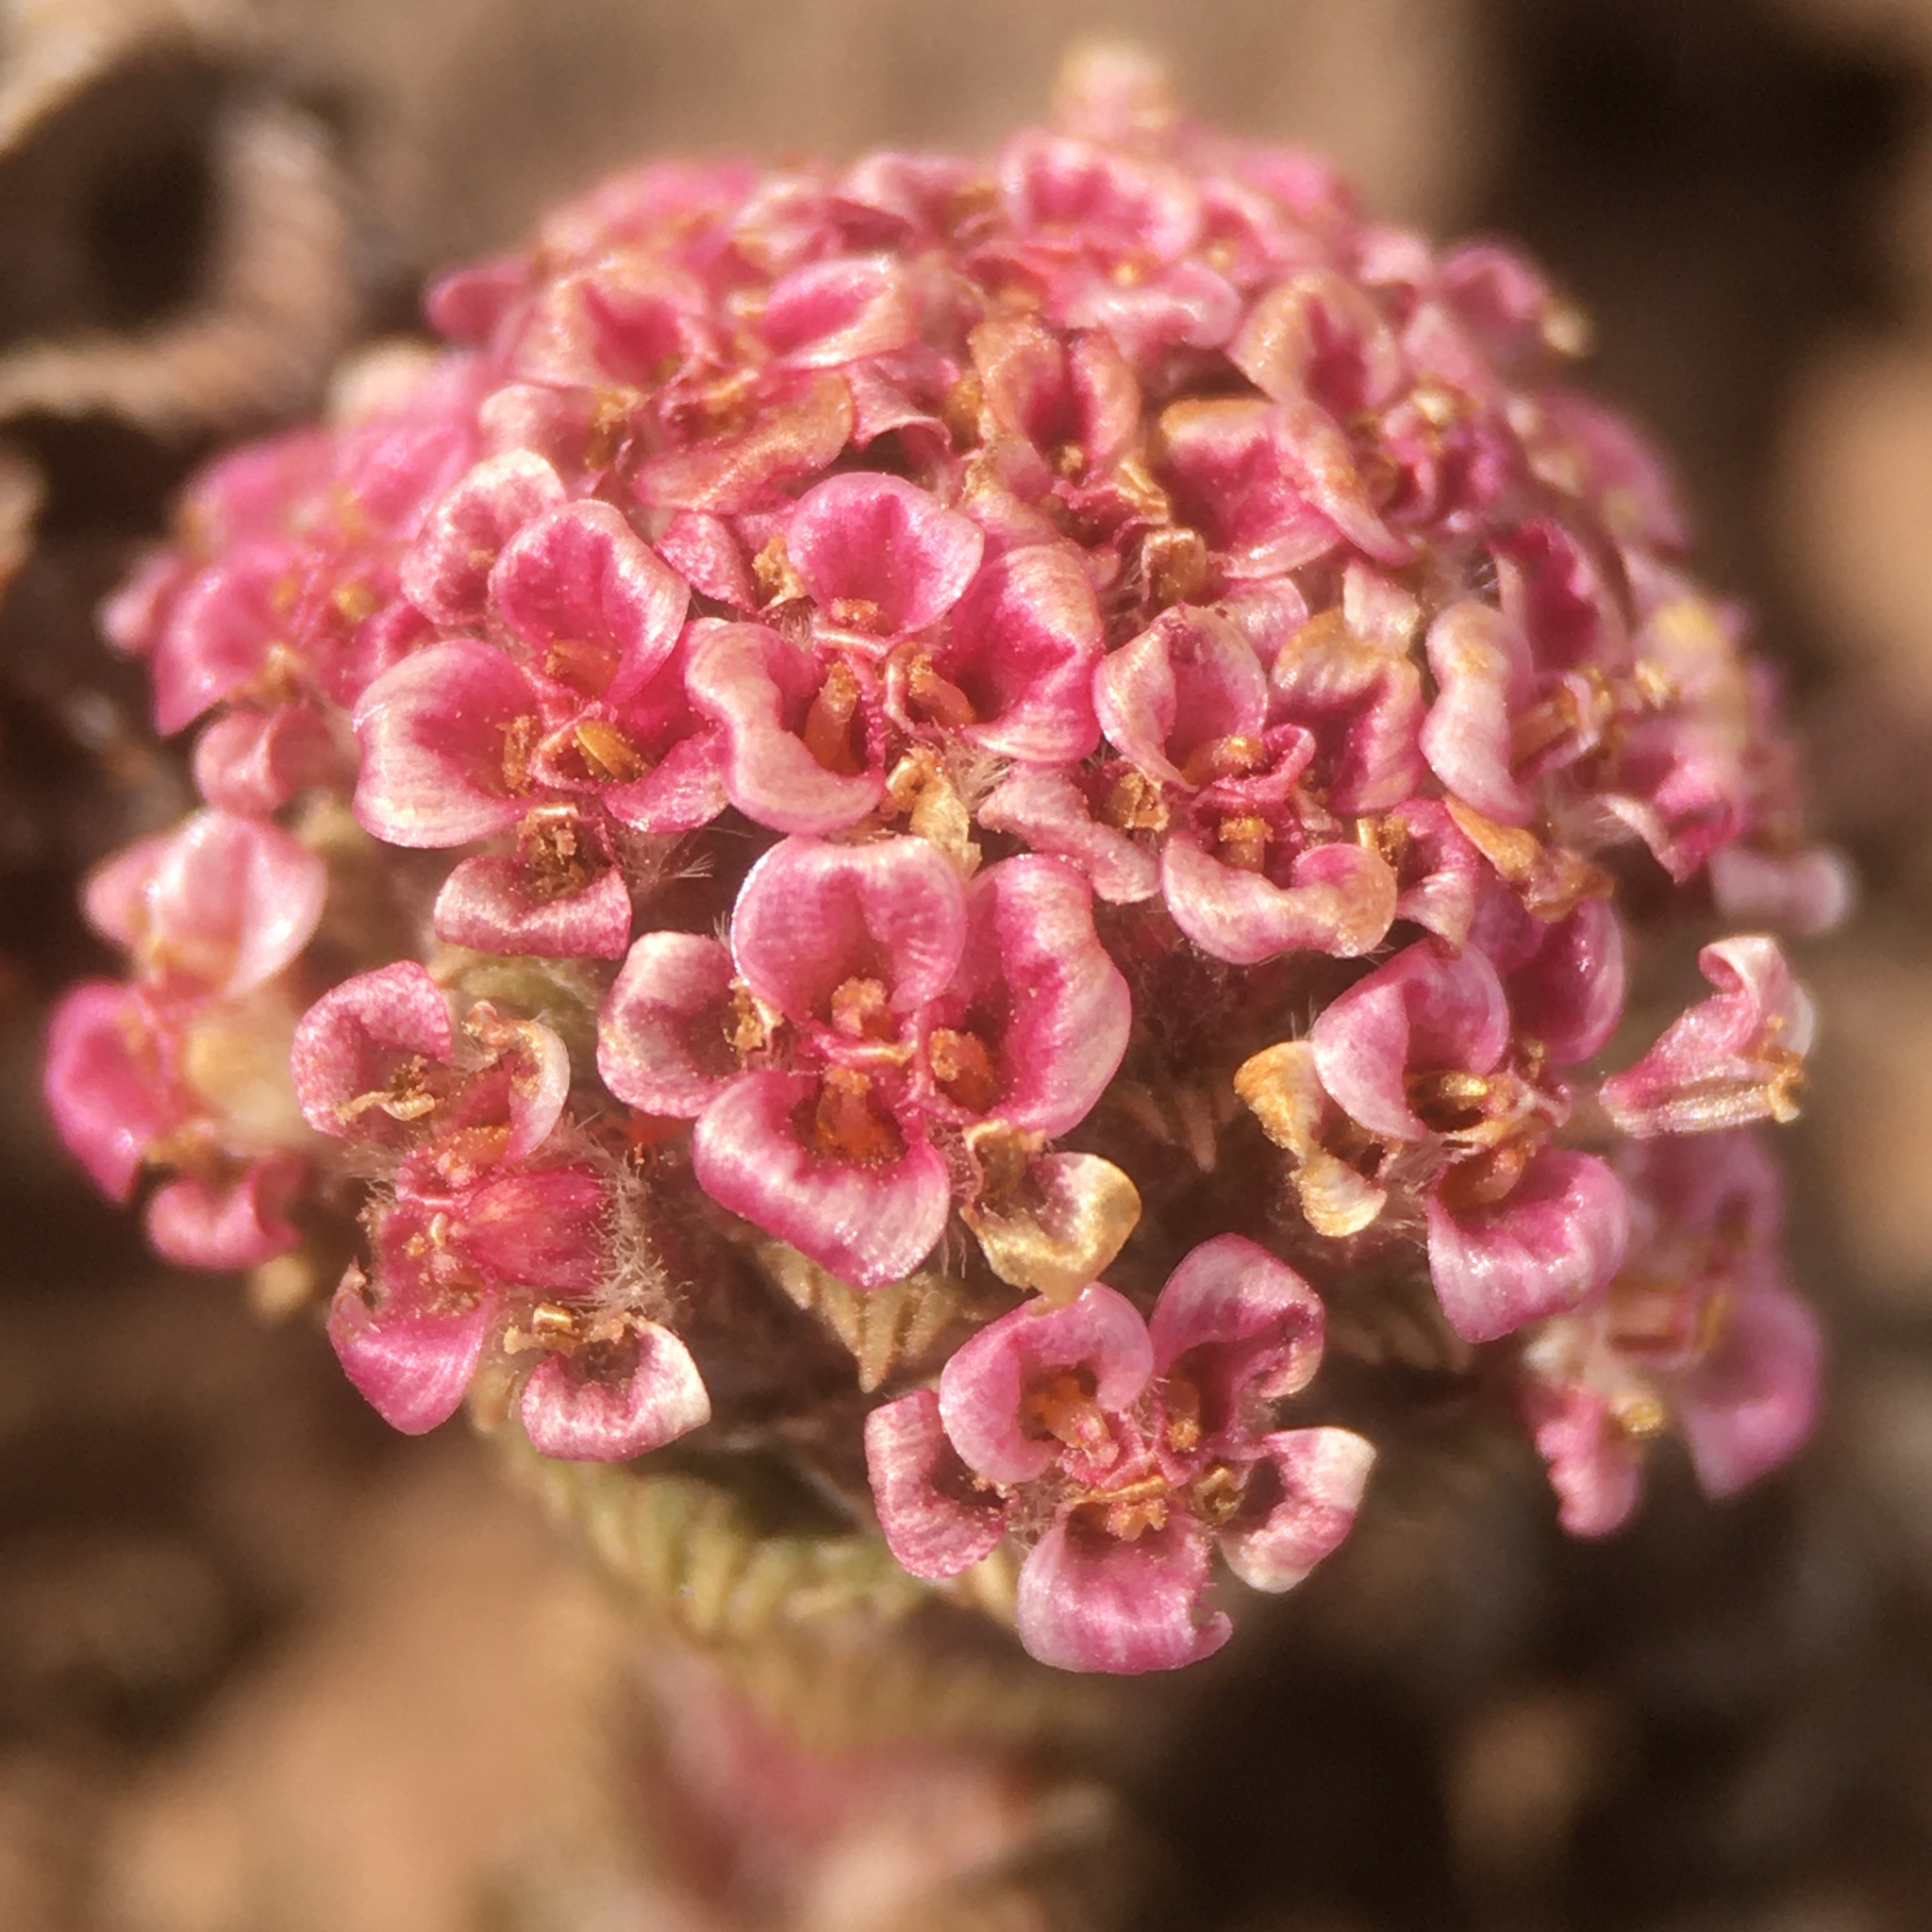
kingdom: Plantae
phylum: Tracheophyta
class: Magnoliopsida
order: Asterales
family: Asteraceae
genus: Nassauvia
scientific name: Nassauvia lagascae
